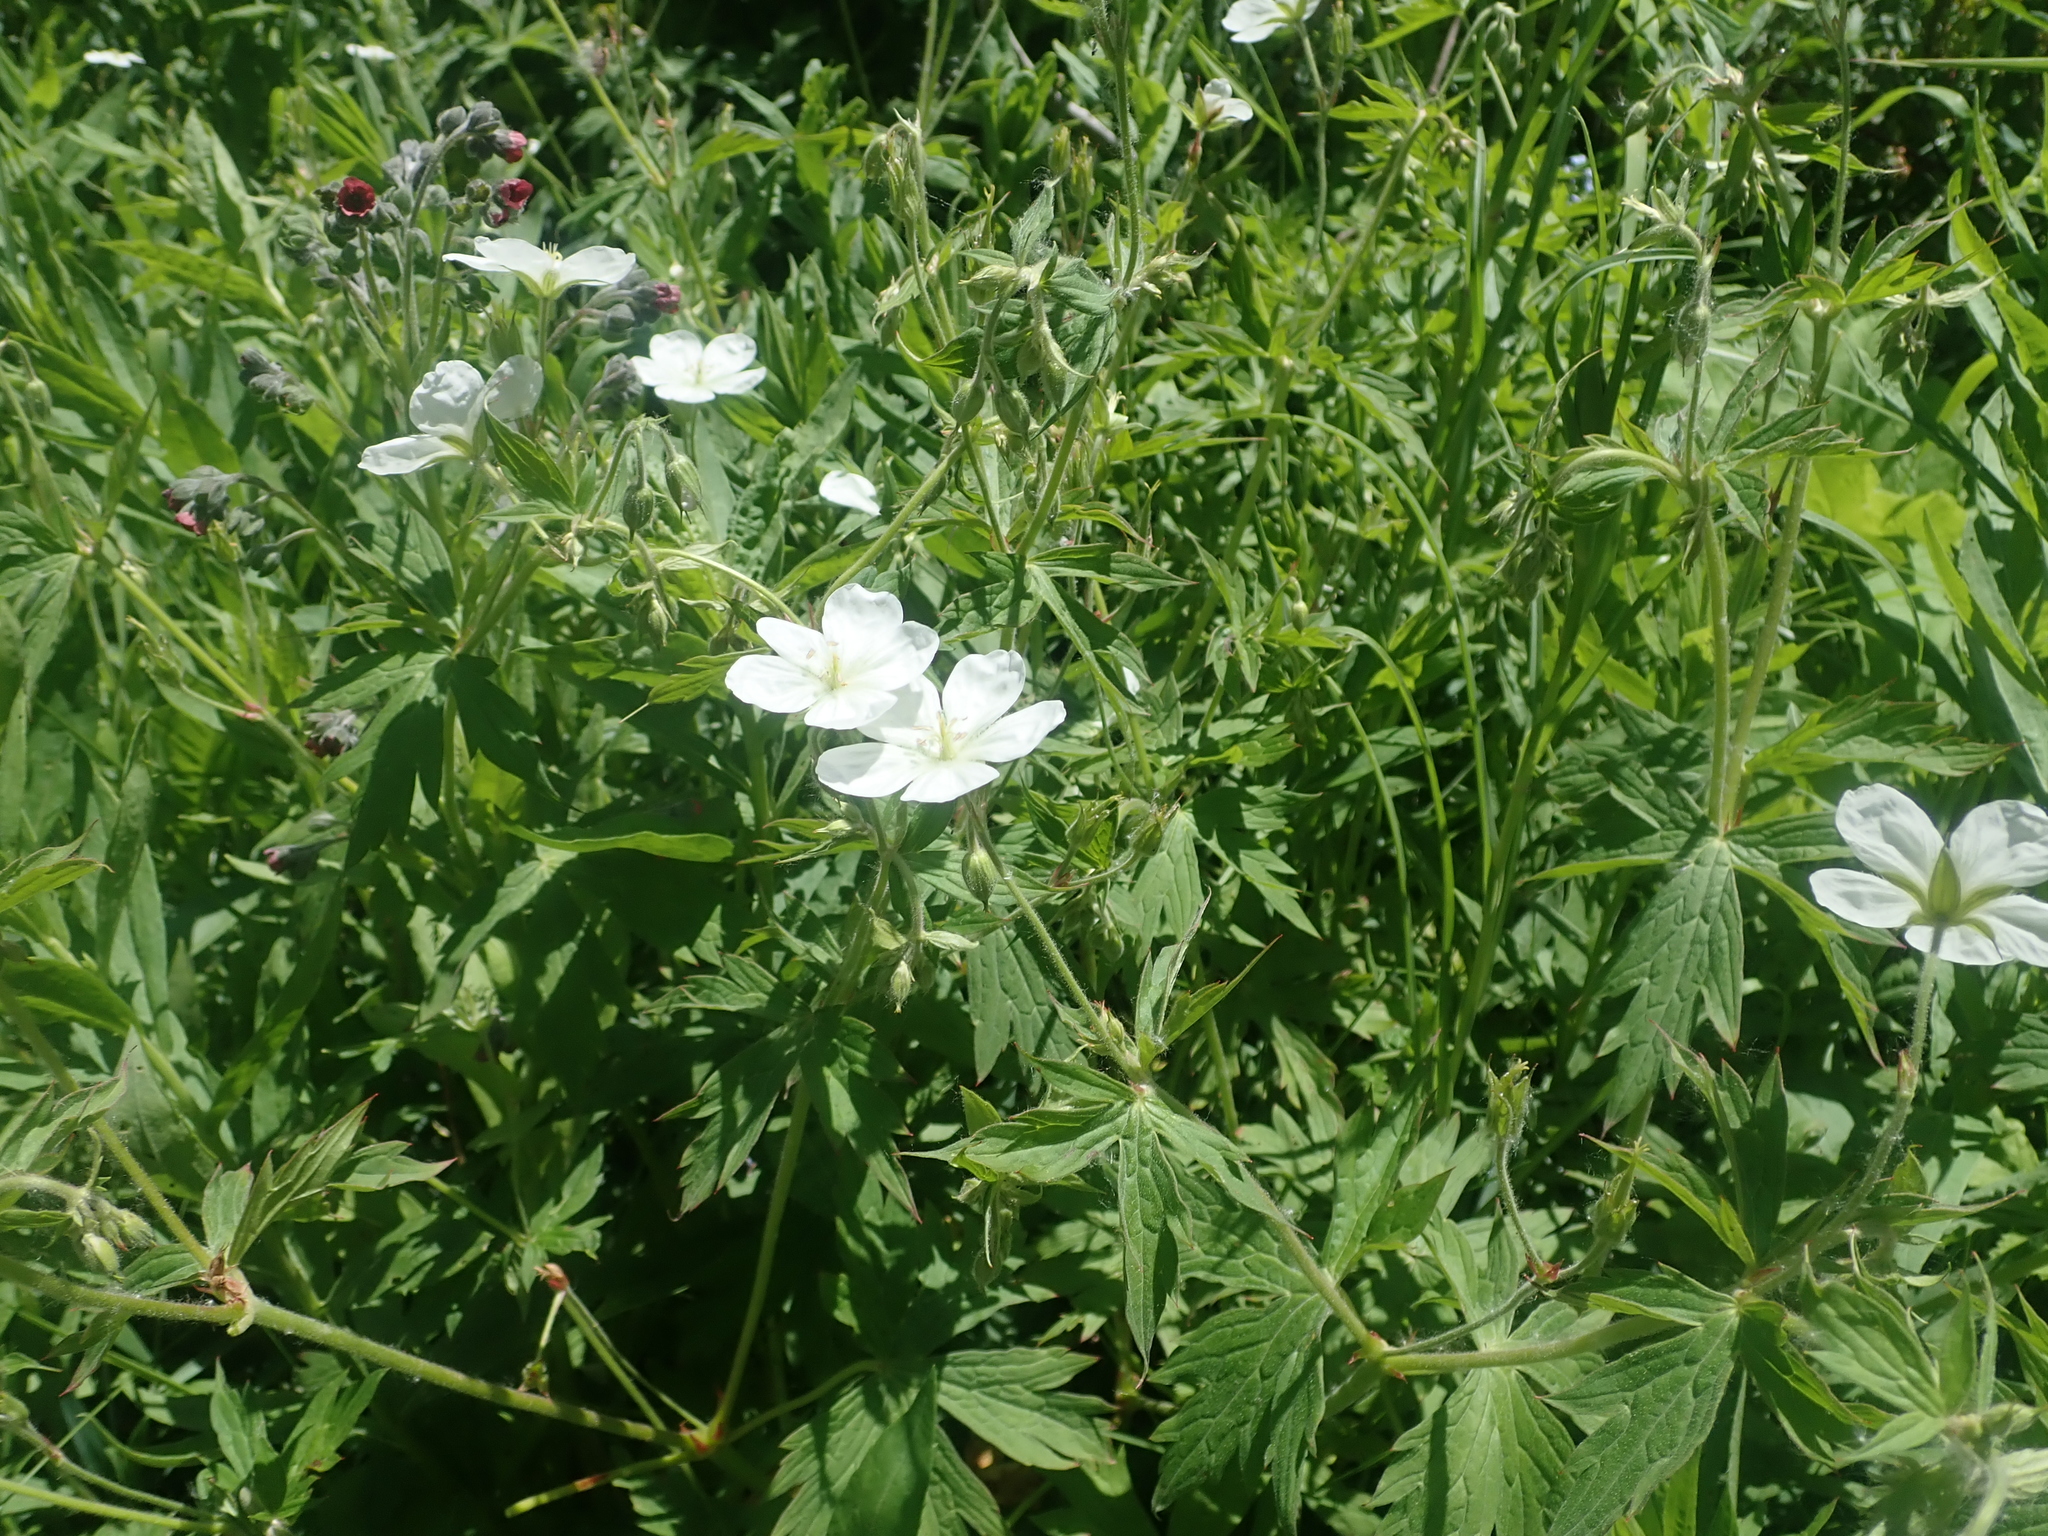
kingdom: Plantae
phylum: Tracheophyta
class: Magnoliopsida
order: Geraniales
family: Geraniaceae
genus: Geranium
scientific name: Geranium richardsonii
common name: Richardson's crane's-bill
